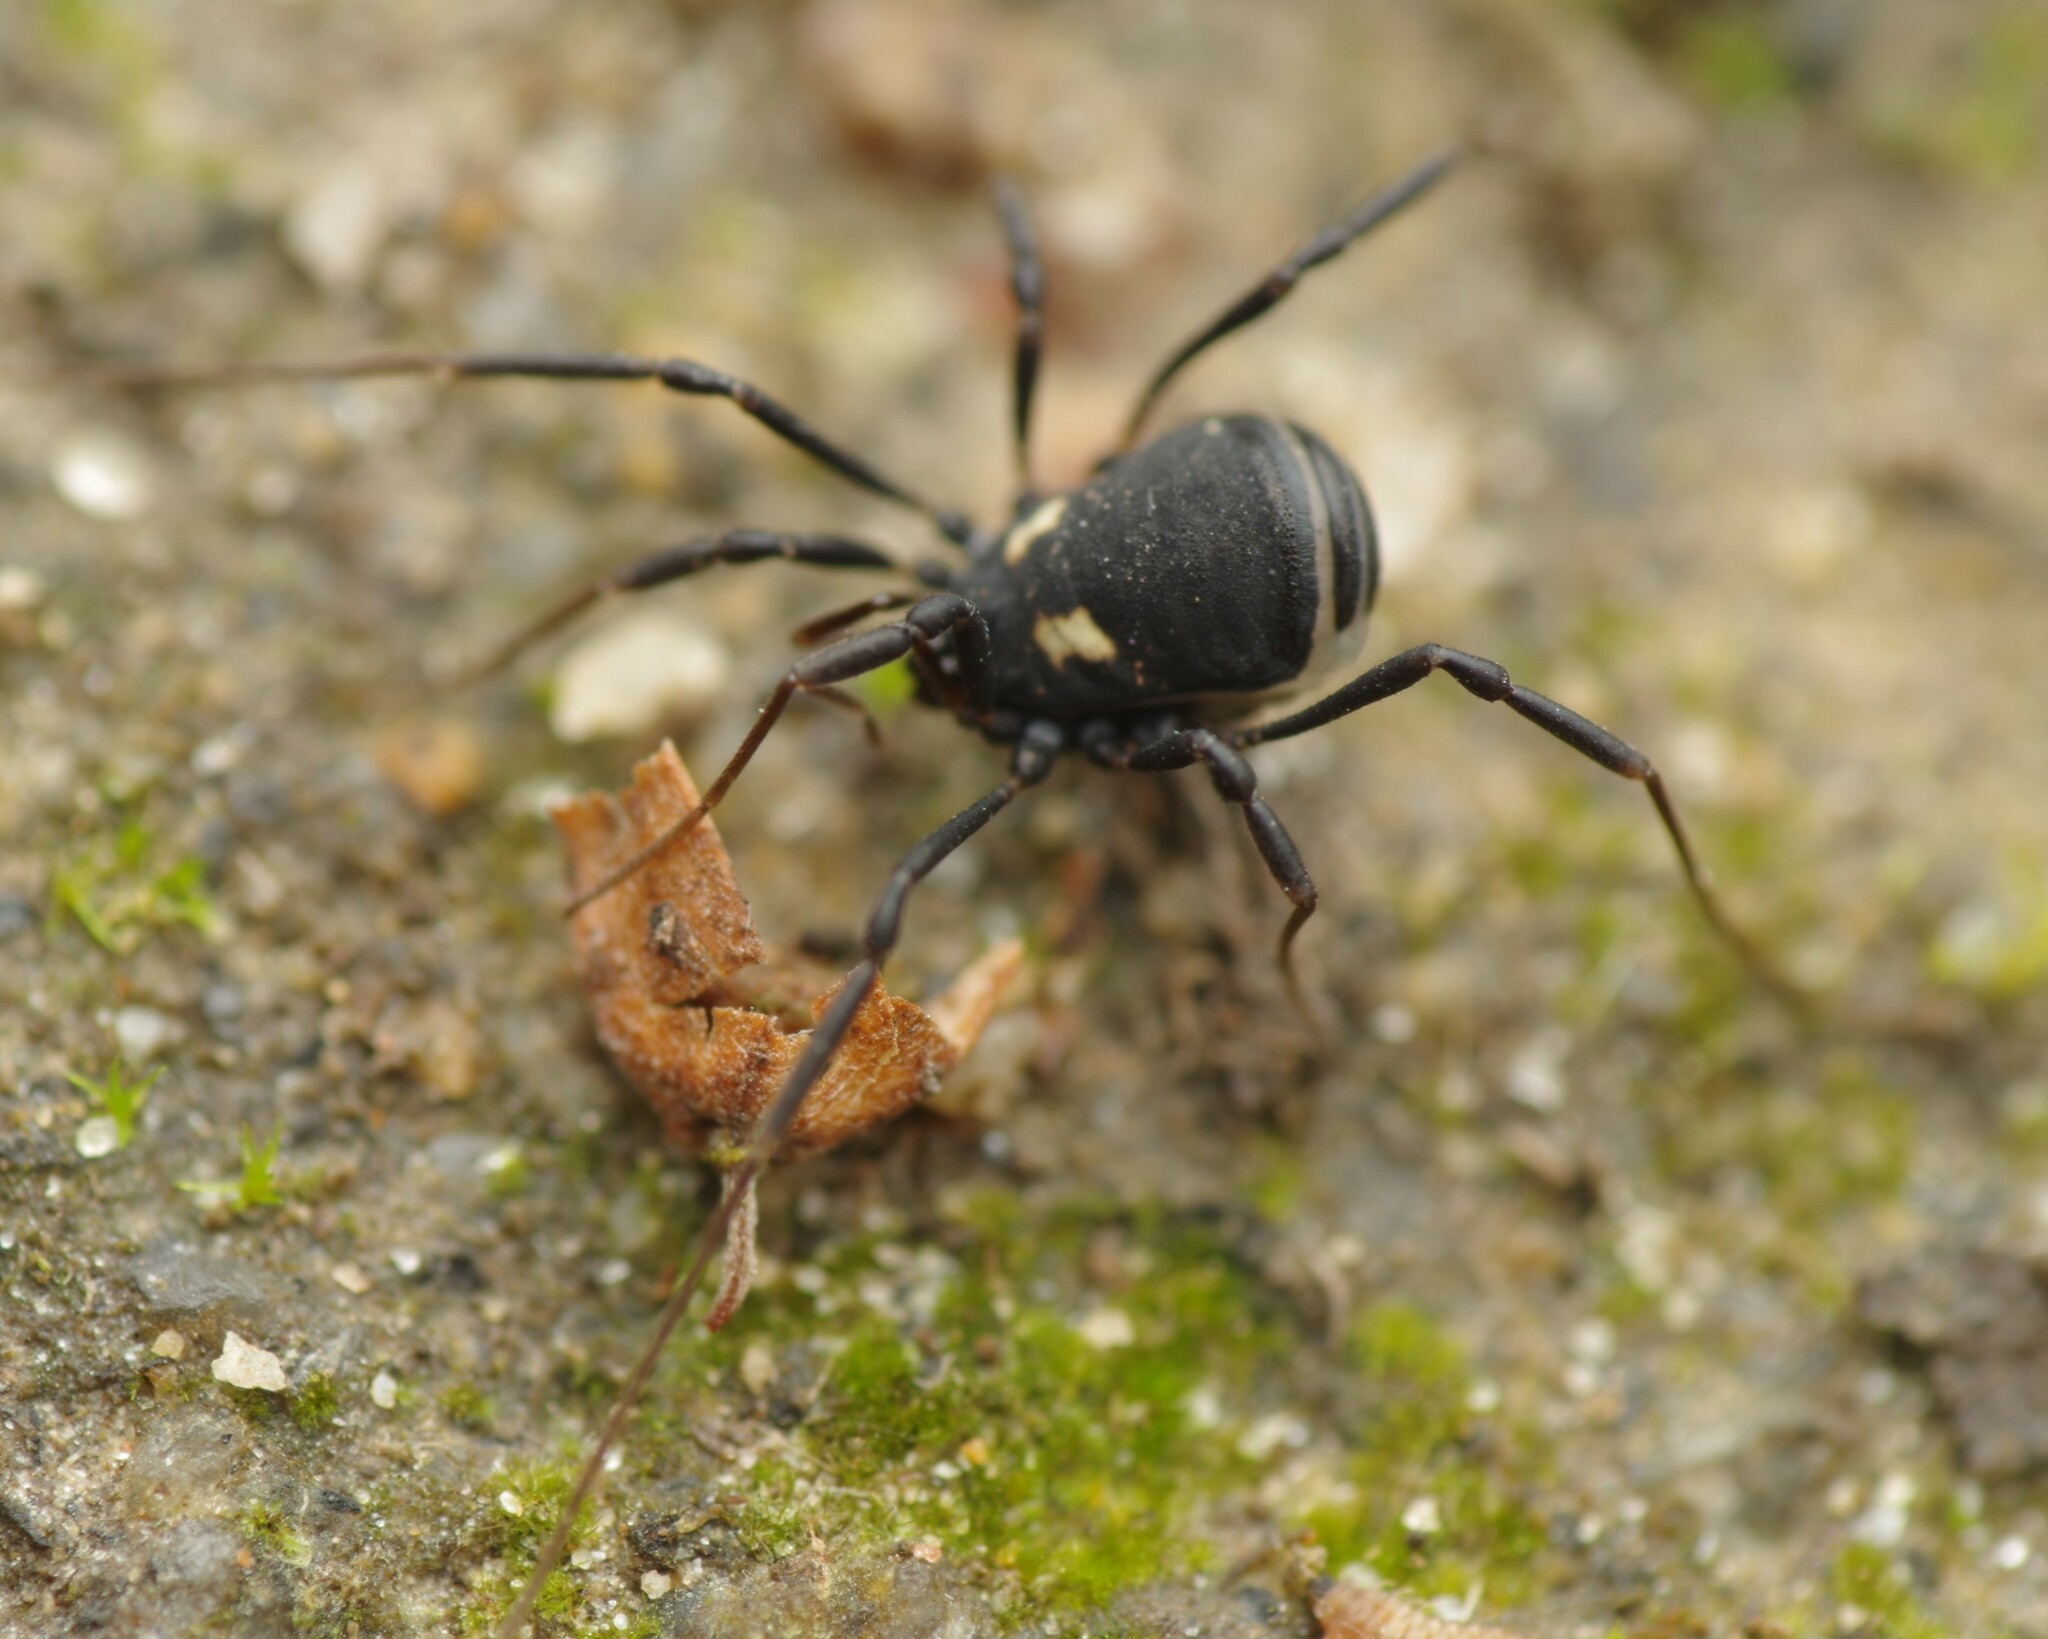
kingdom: Animalia
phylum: Arthropoda
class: Arachnida
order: Opiliones
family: Nemastomatidae
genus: Nemastoma
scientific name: Nemastoma bimaculatum
